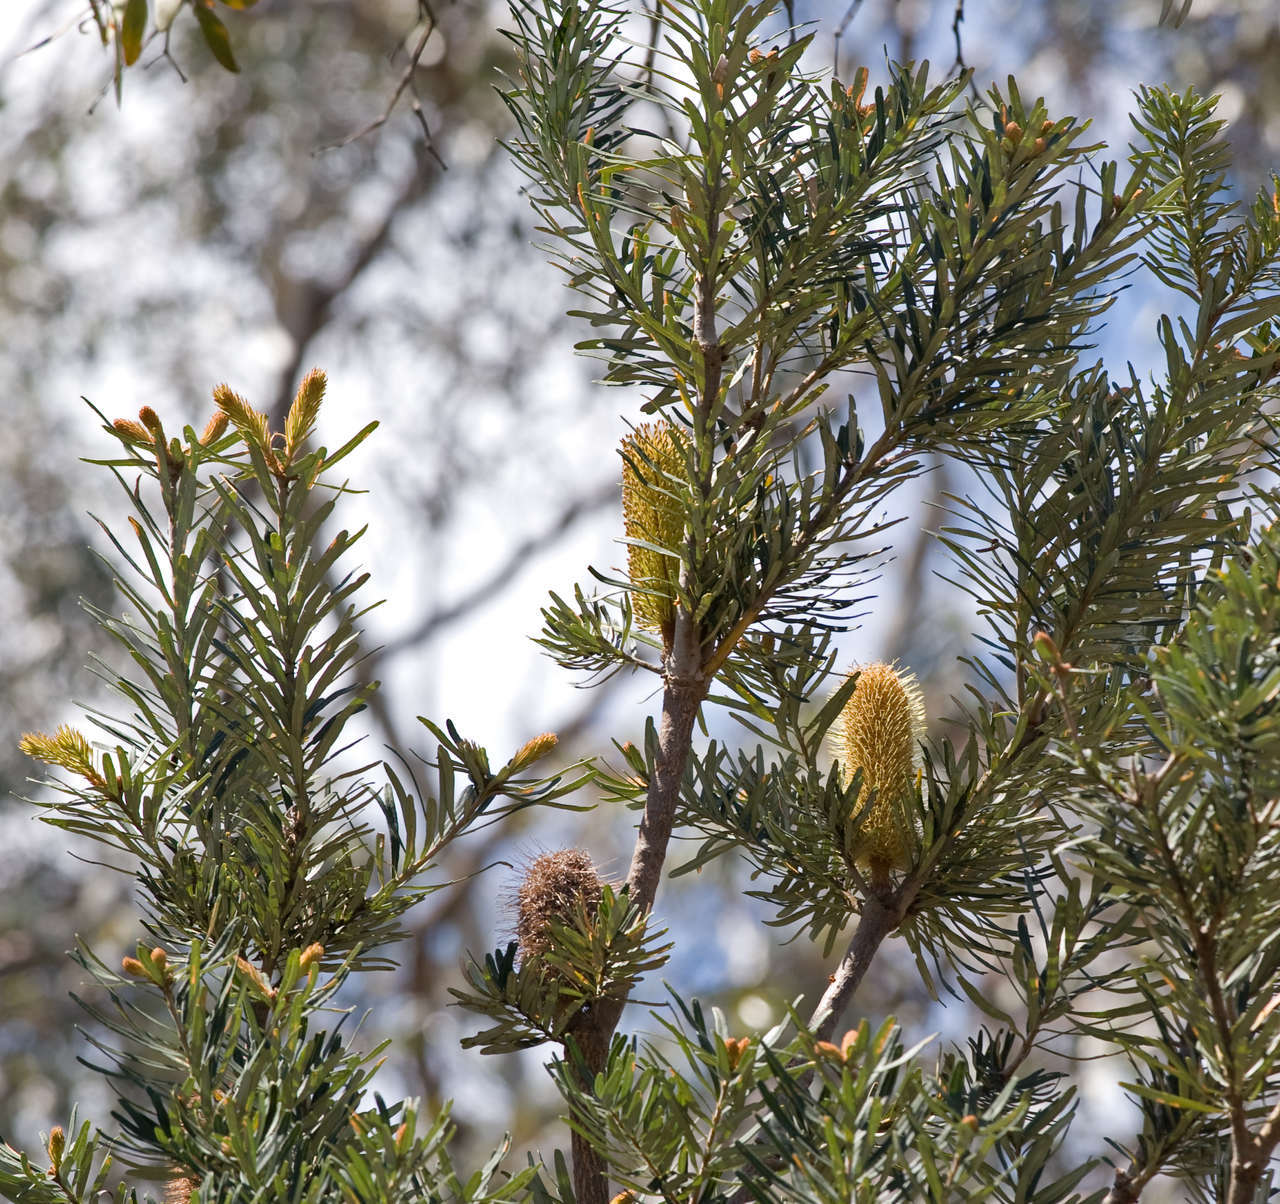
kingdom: Plantae
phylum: Tracheophyta
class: Magnoliopsida
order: Proteales
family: Proteaceae
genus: Banksia
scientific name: Banksia marginata
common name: Silver banksia
